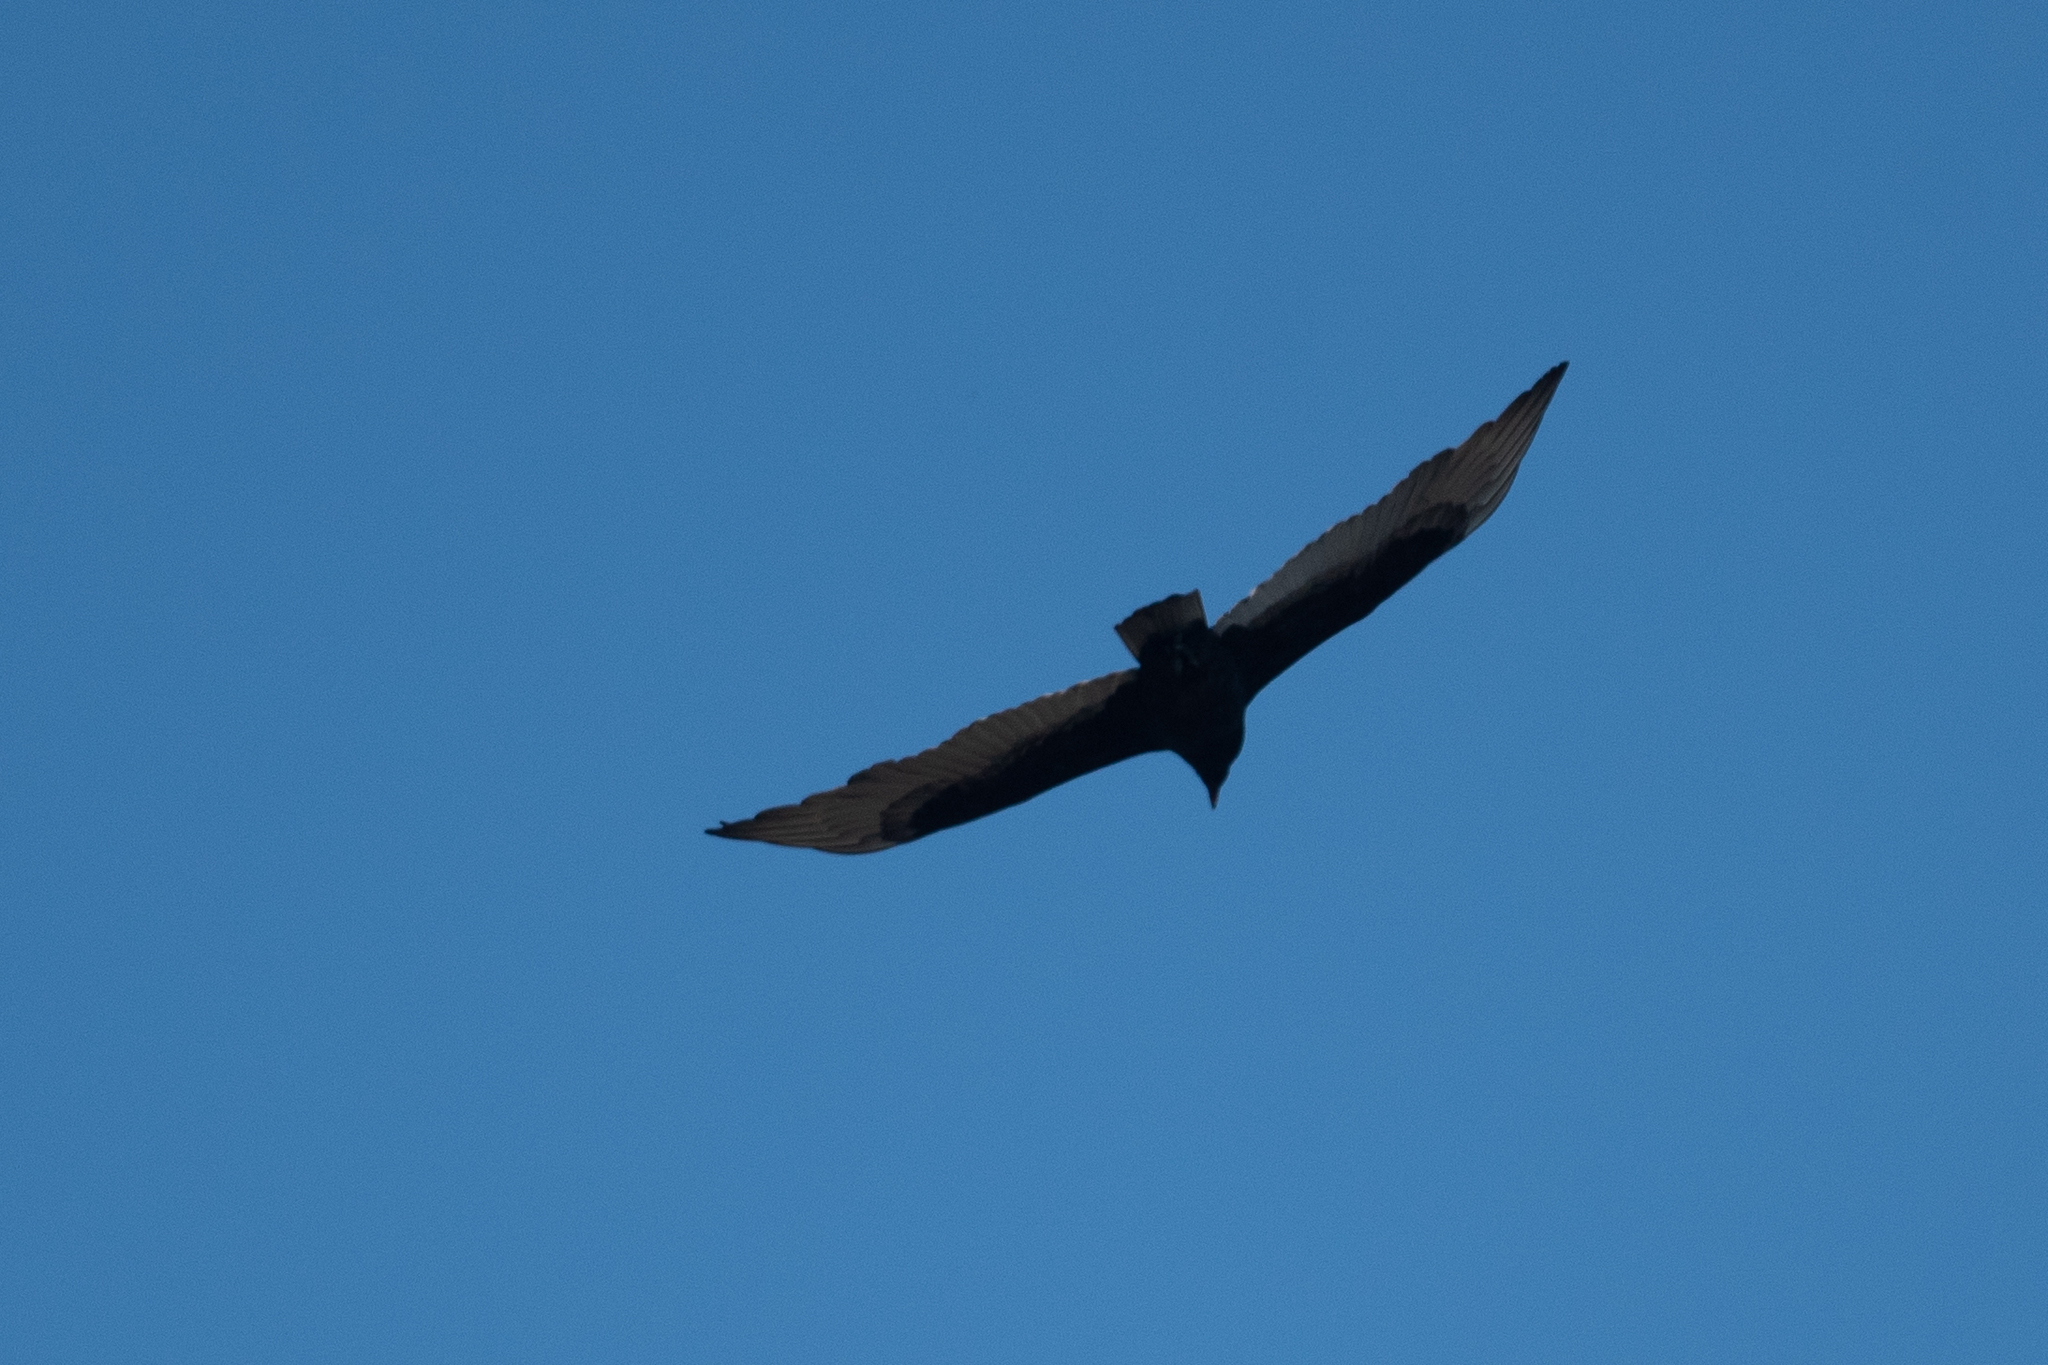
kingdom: Animalia
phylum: Chordata
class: Aves
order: Accipitriformes
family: Cathartidae
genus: Cathartes
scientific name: Cathartes aura
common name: Turkey vulture
